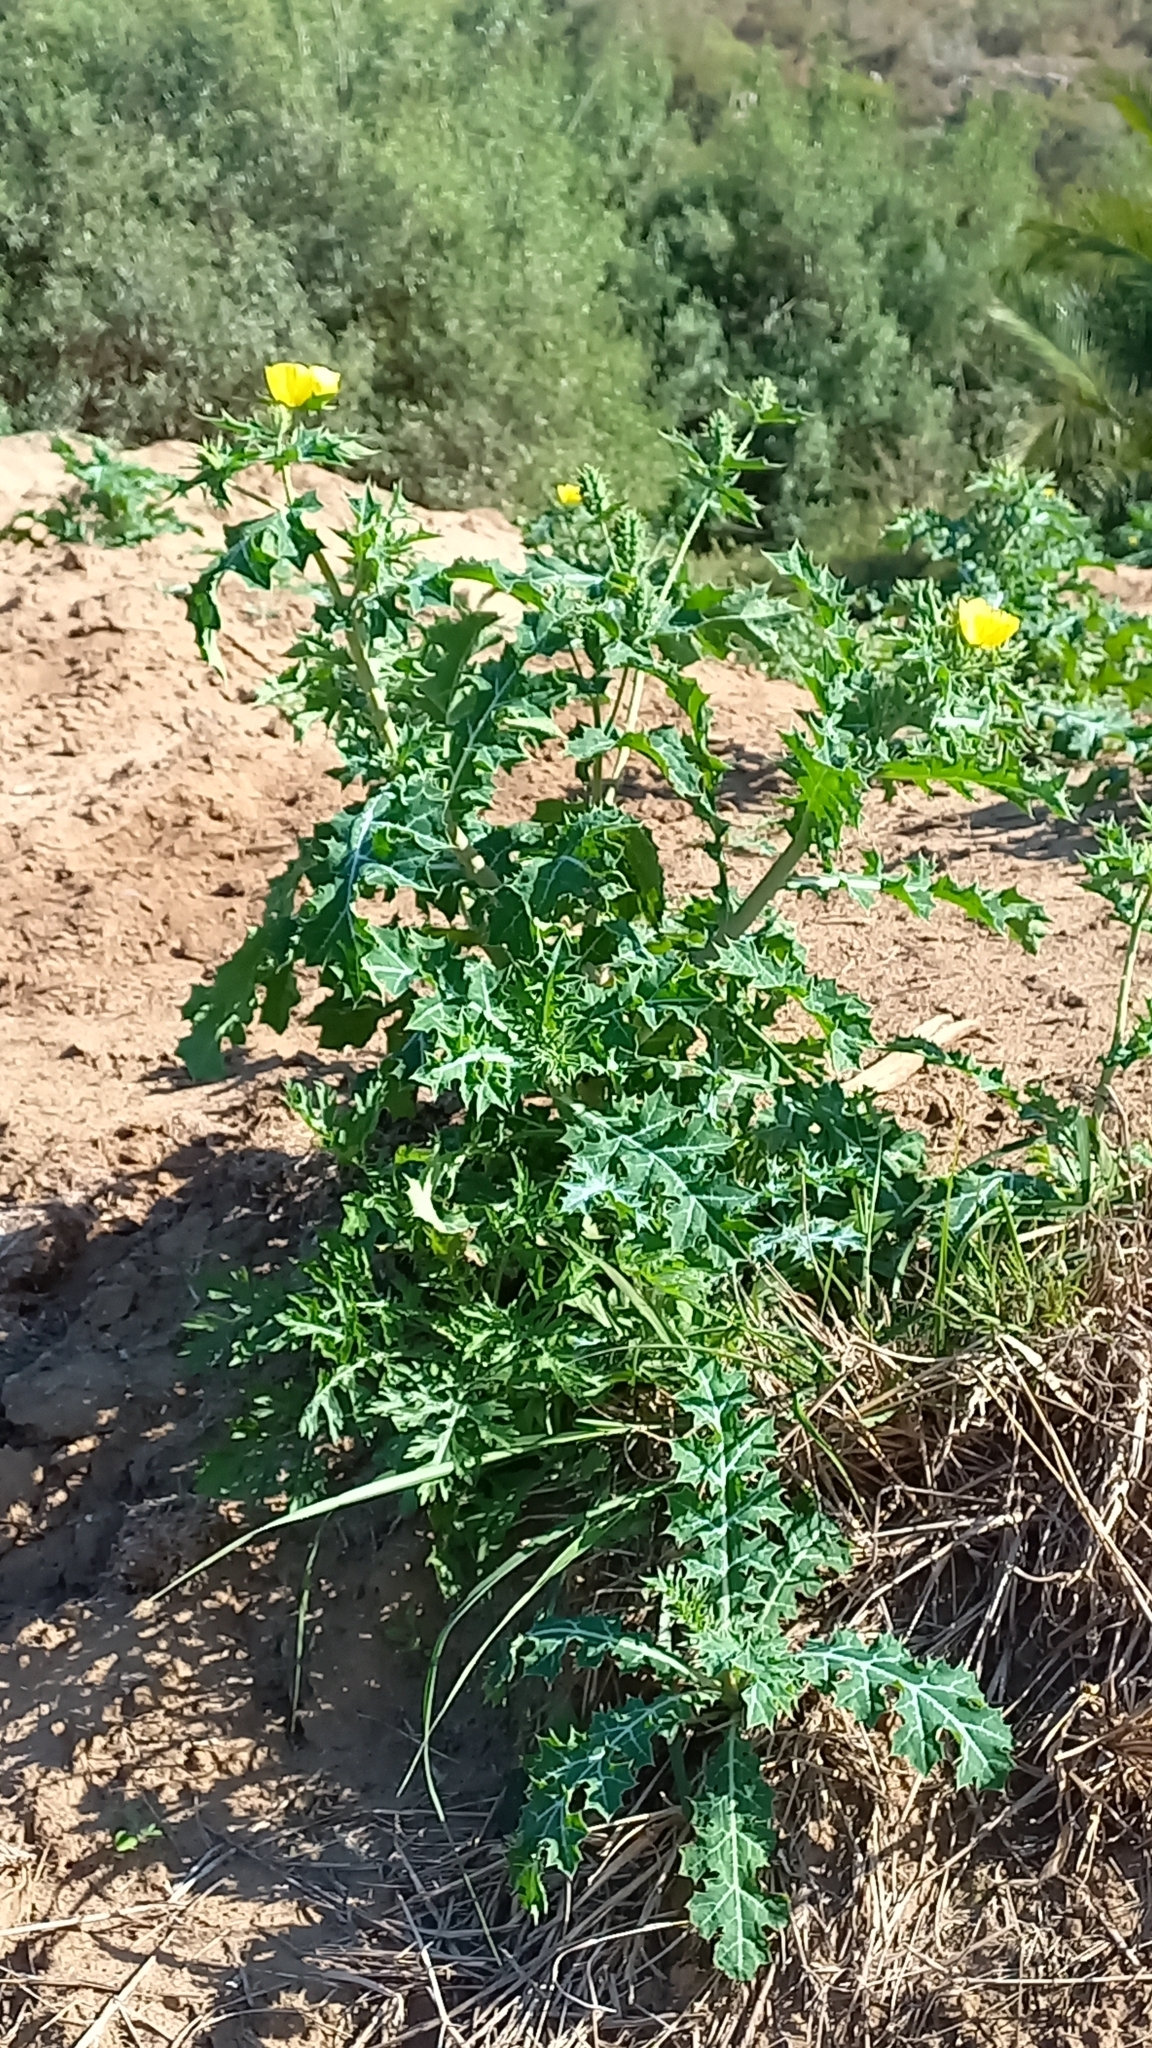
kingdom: Plantae
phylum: Tracheophyta
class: Magnoliopsida
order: Ranunculales
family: Papaveraceae
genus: Argemone
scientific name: Argemone mexicana
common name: Mexican poppy
